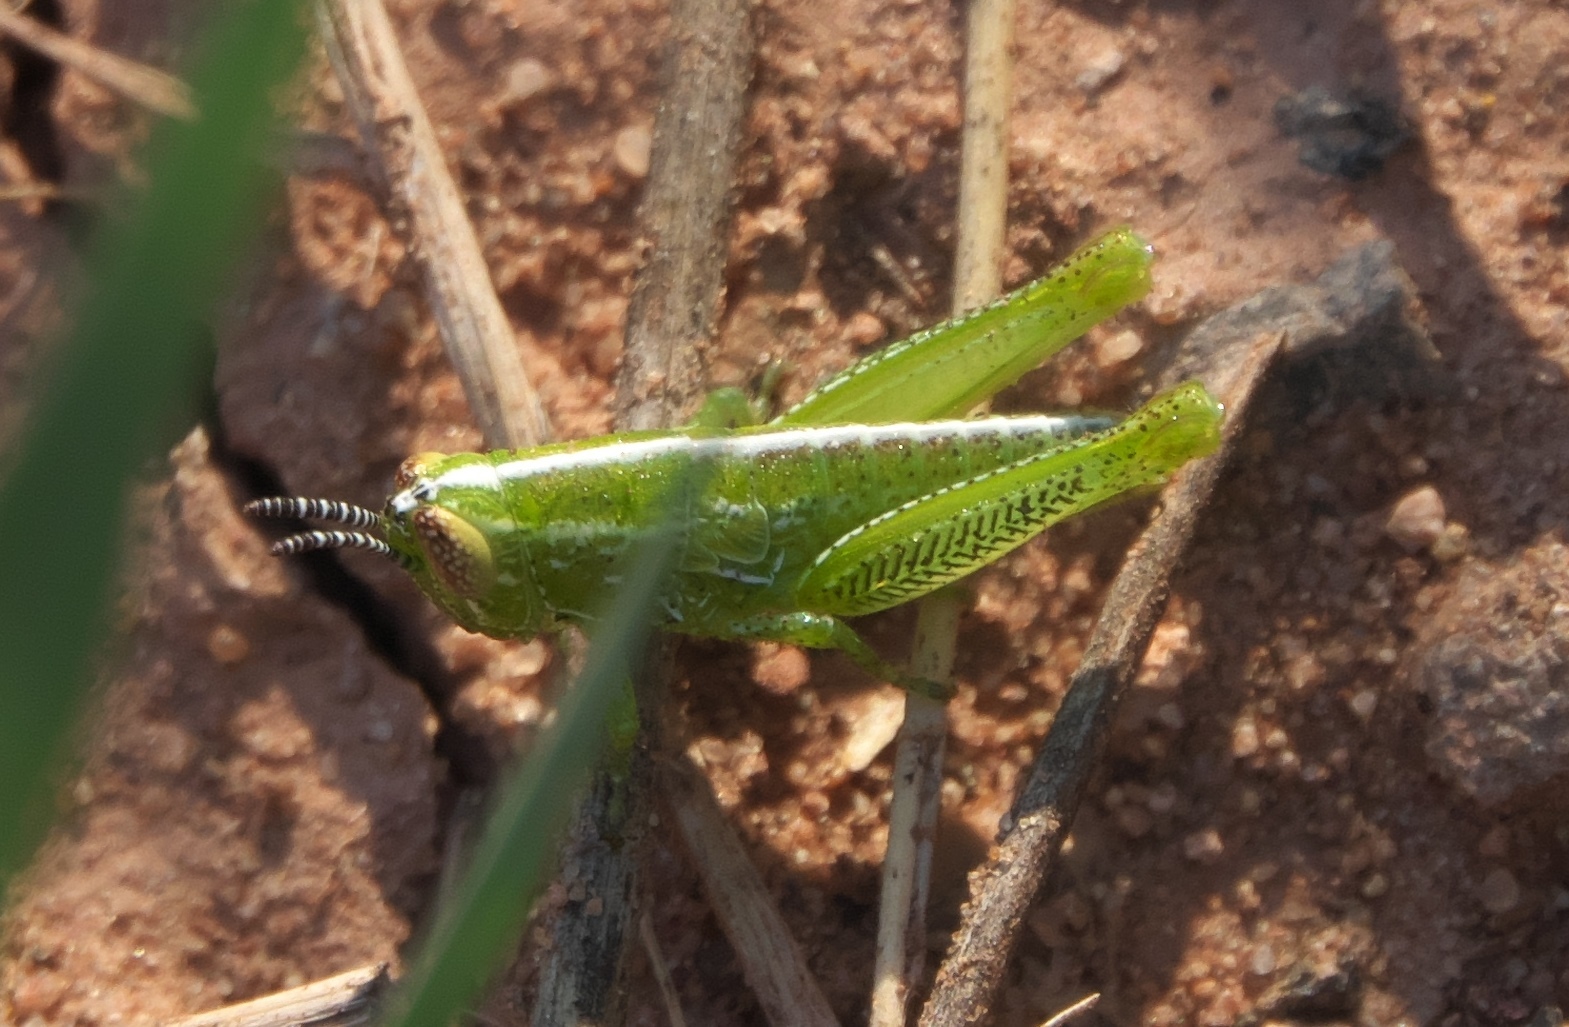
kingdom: Animalia
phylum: Arthropoda
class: Insecta
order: Orthoptera
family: Acrididae
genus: Hesperotettix
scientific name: Hesperotettix viridis
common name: Meadow purple-striped grasshopper
